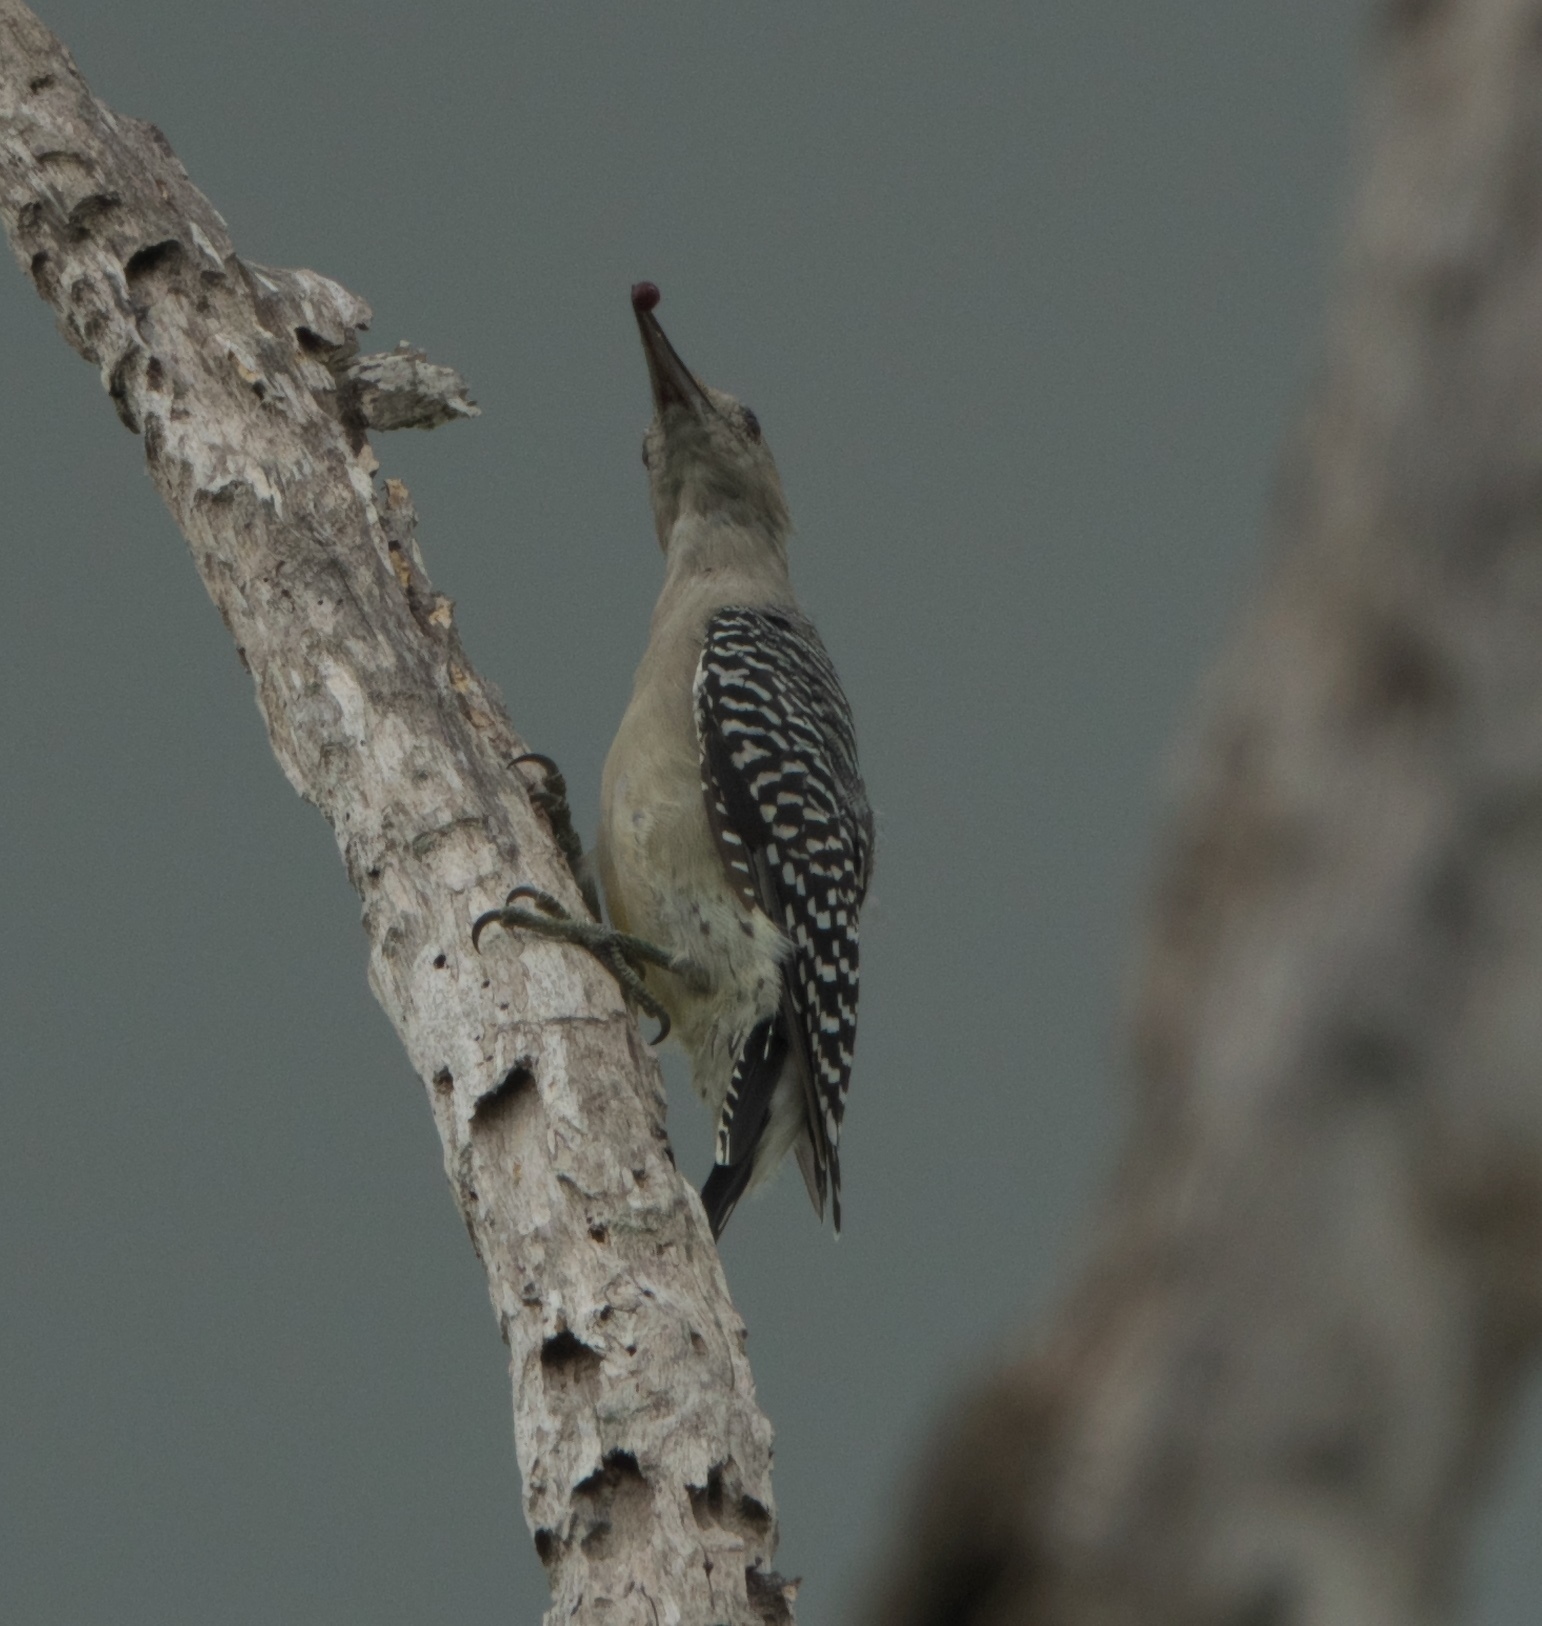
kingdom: Animalia
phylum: Chordata
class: Aves
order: Piciformes
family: Picidae
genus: Melanerpes
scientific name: Melanerpes aurifrons
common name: Golden-fronted woodpecker
